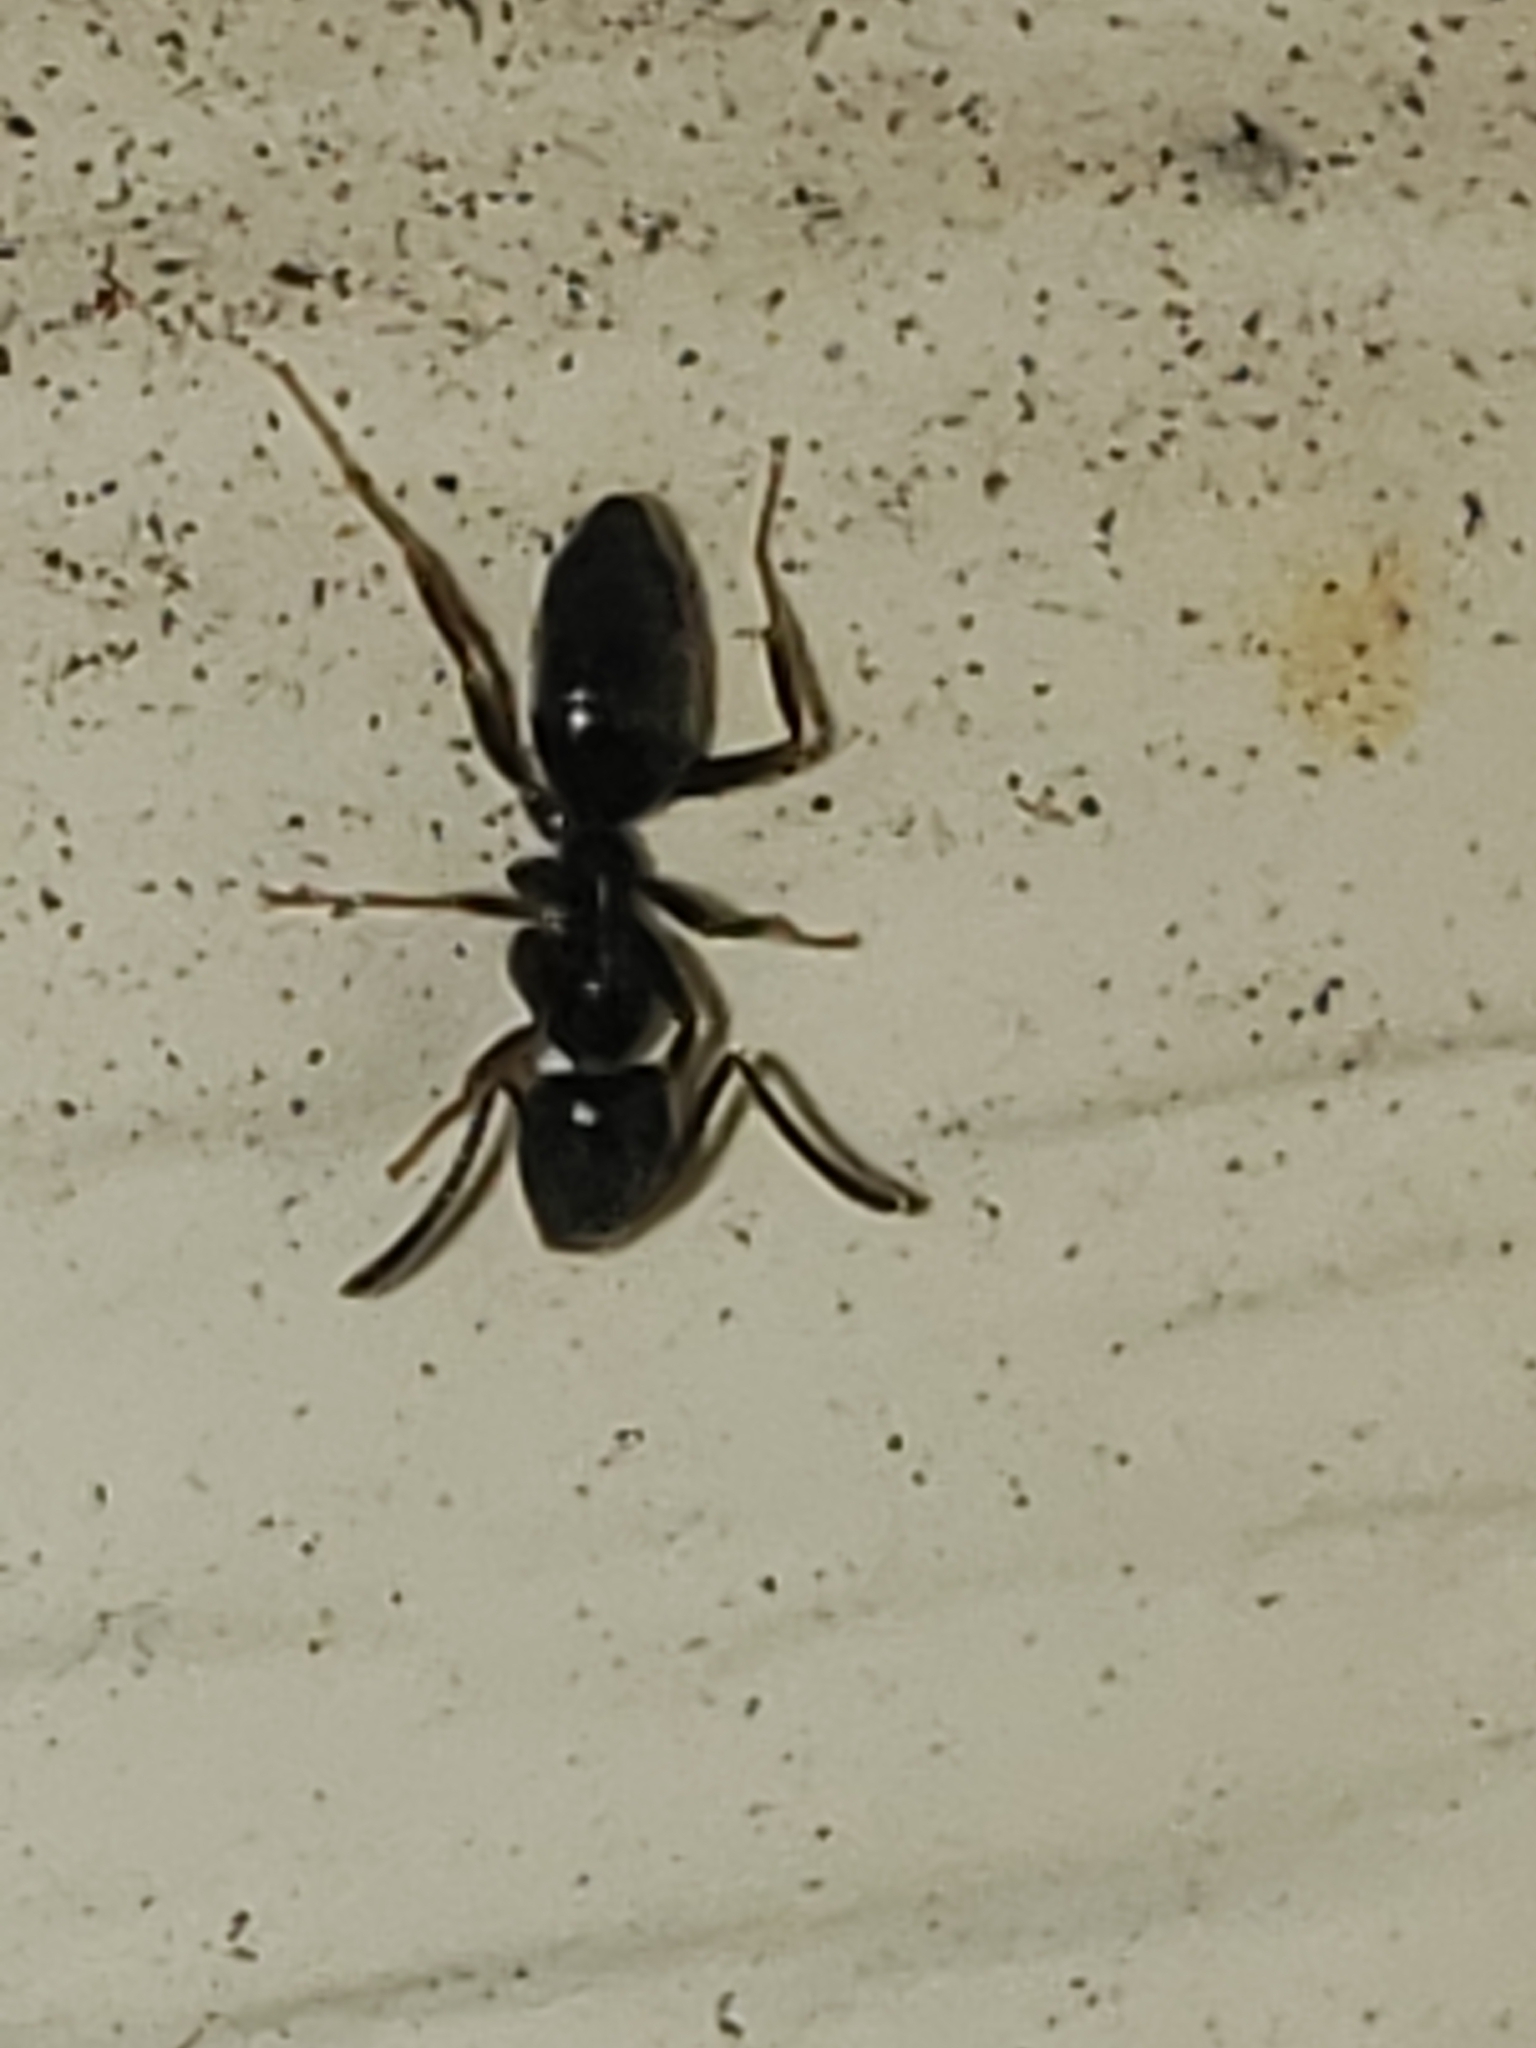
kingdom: Animalia
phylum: Arthropoda
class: Insecta
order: Hymenoptera
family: Formicidae
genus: Tapinoma
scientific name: Tapinoma sessile
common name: Odorous house ant
